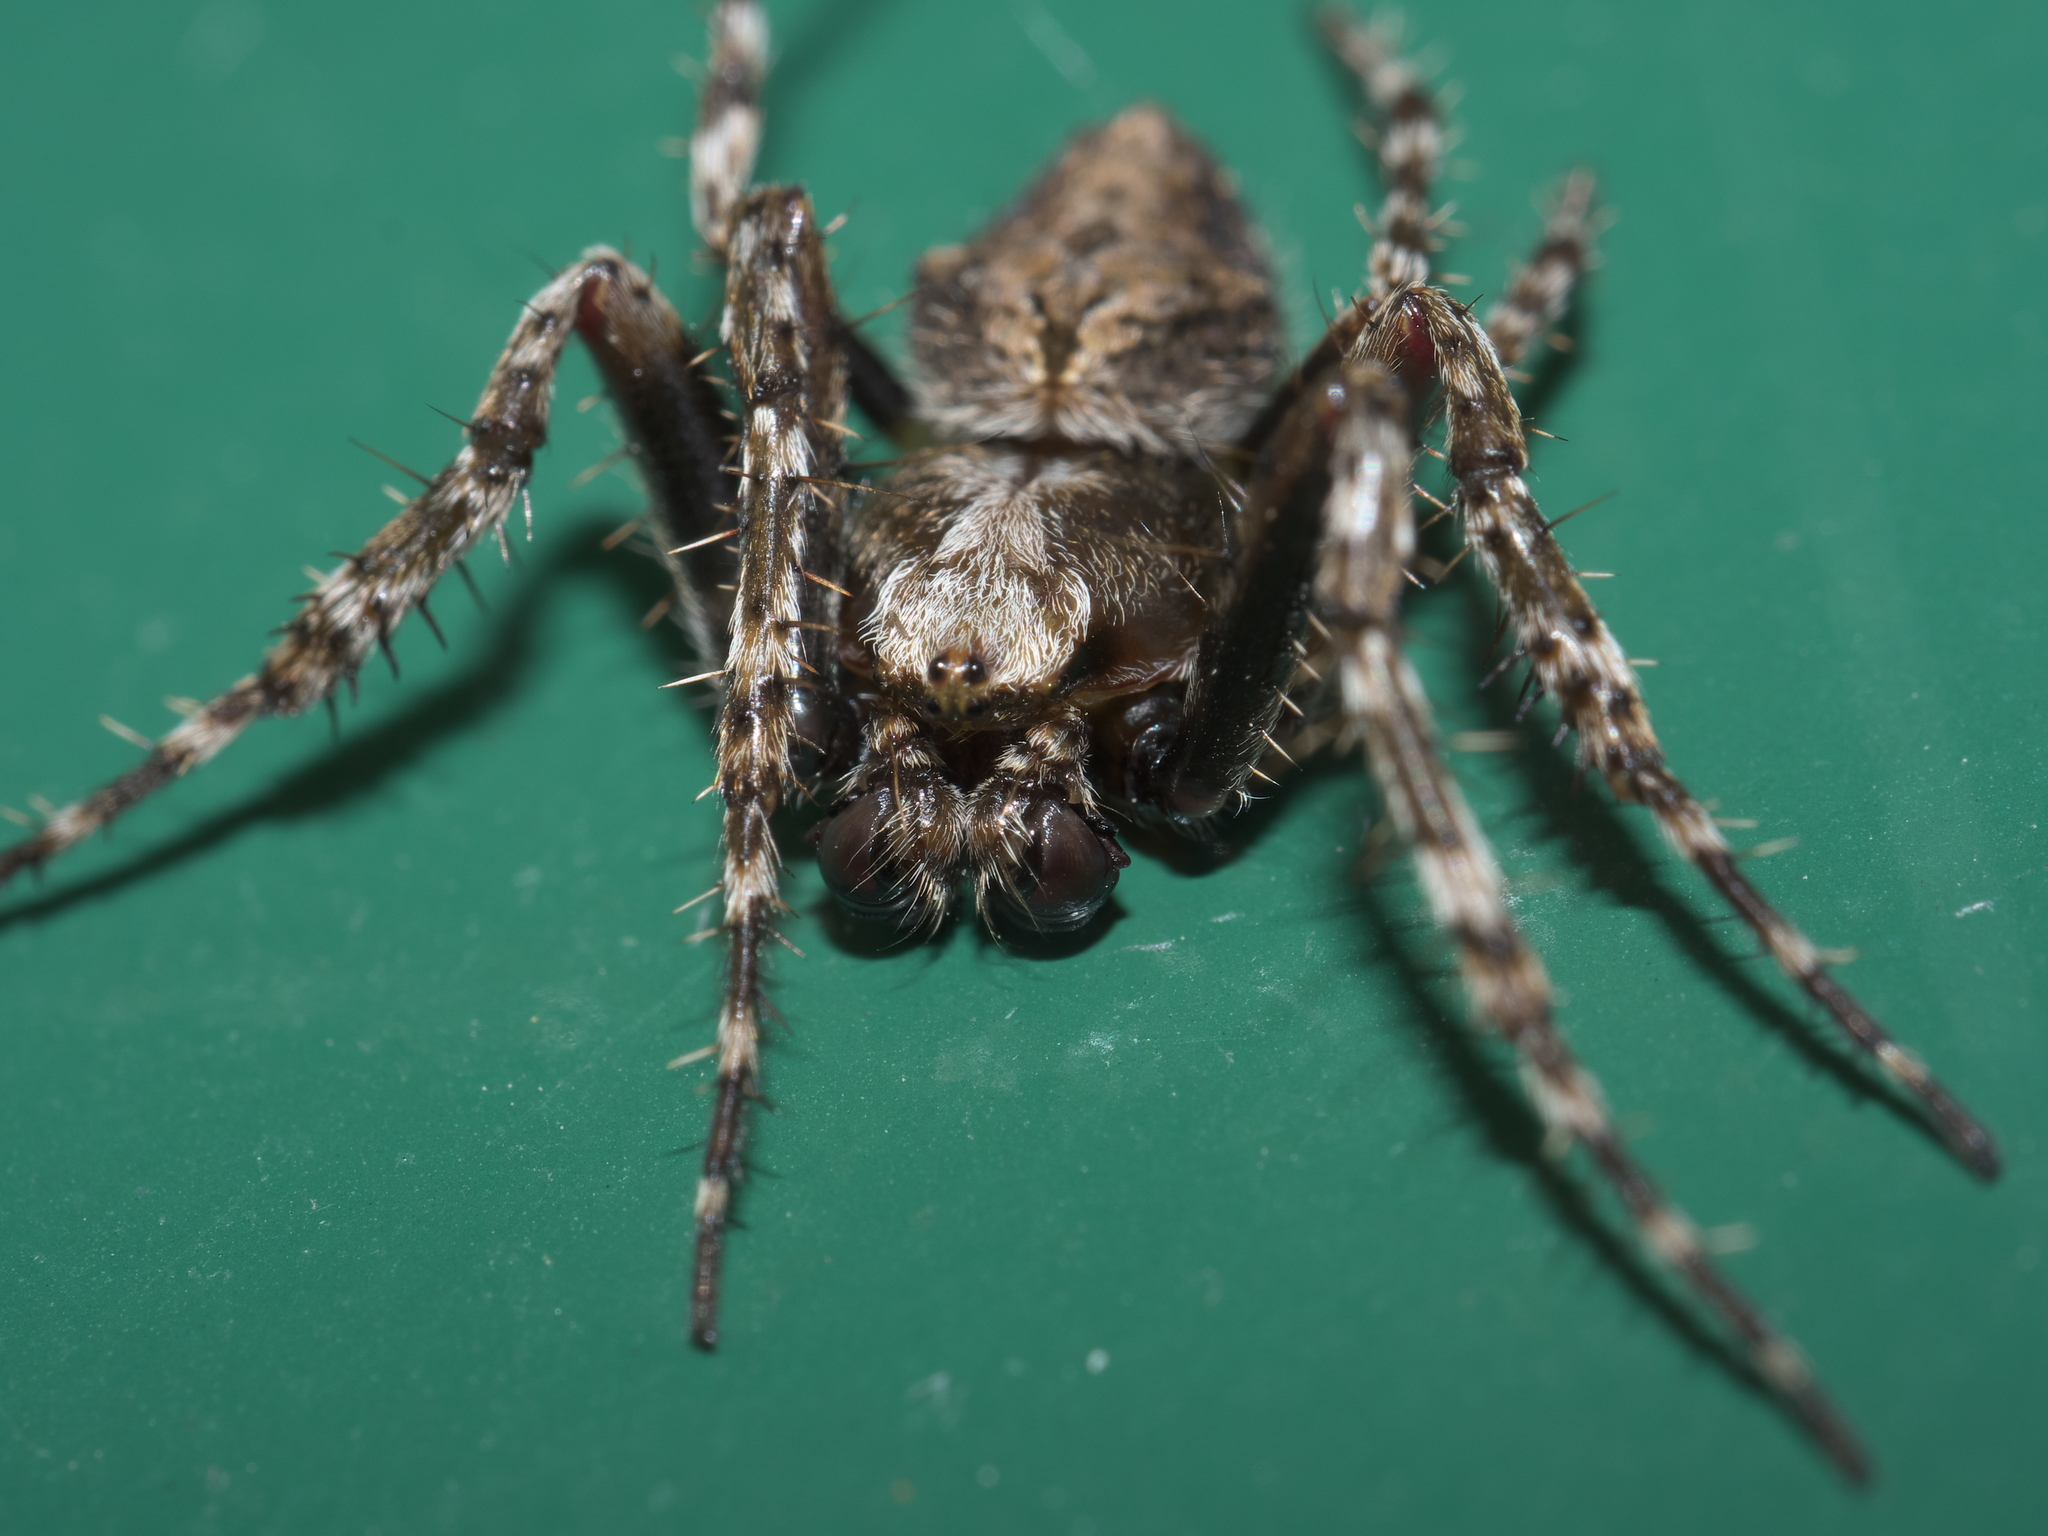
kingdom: Animalia
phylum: Arthropoda
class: Arachnida
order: Araneae
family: Araneidae
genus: Eriophora
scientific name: Eriophora pustulosa
